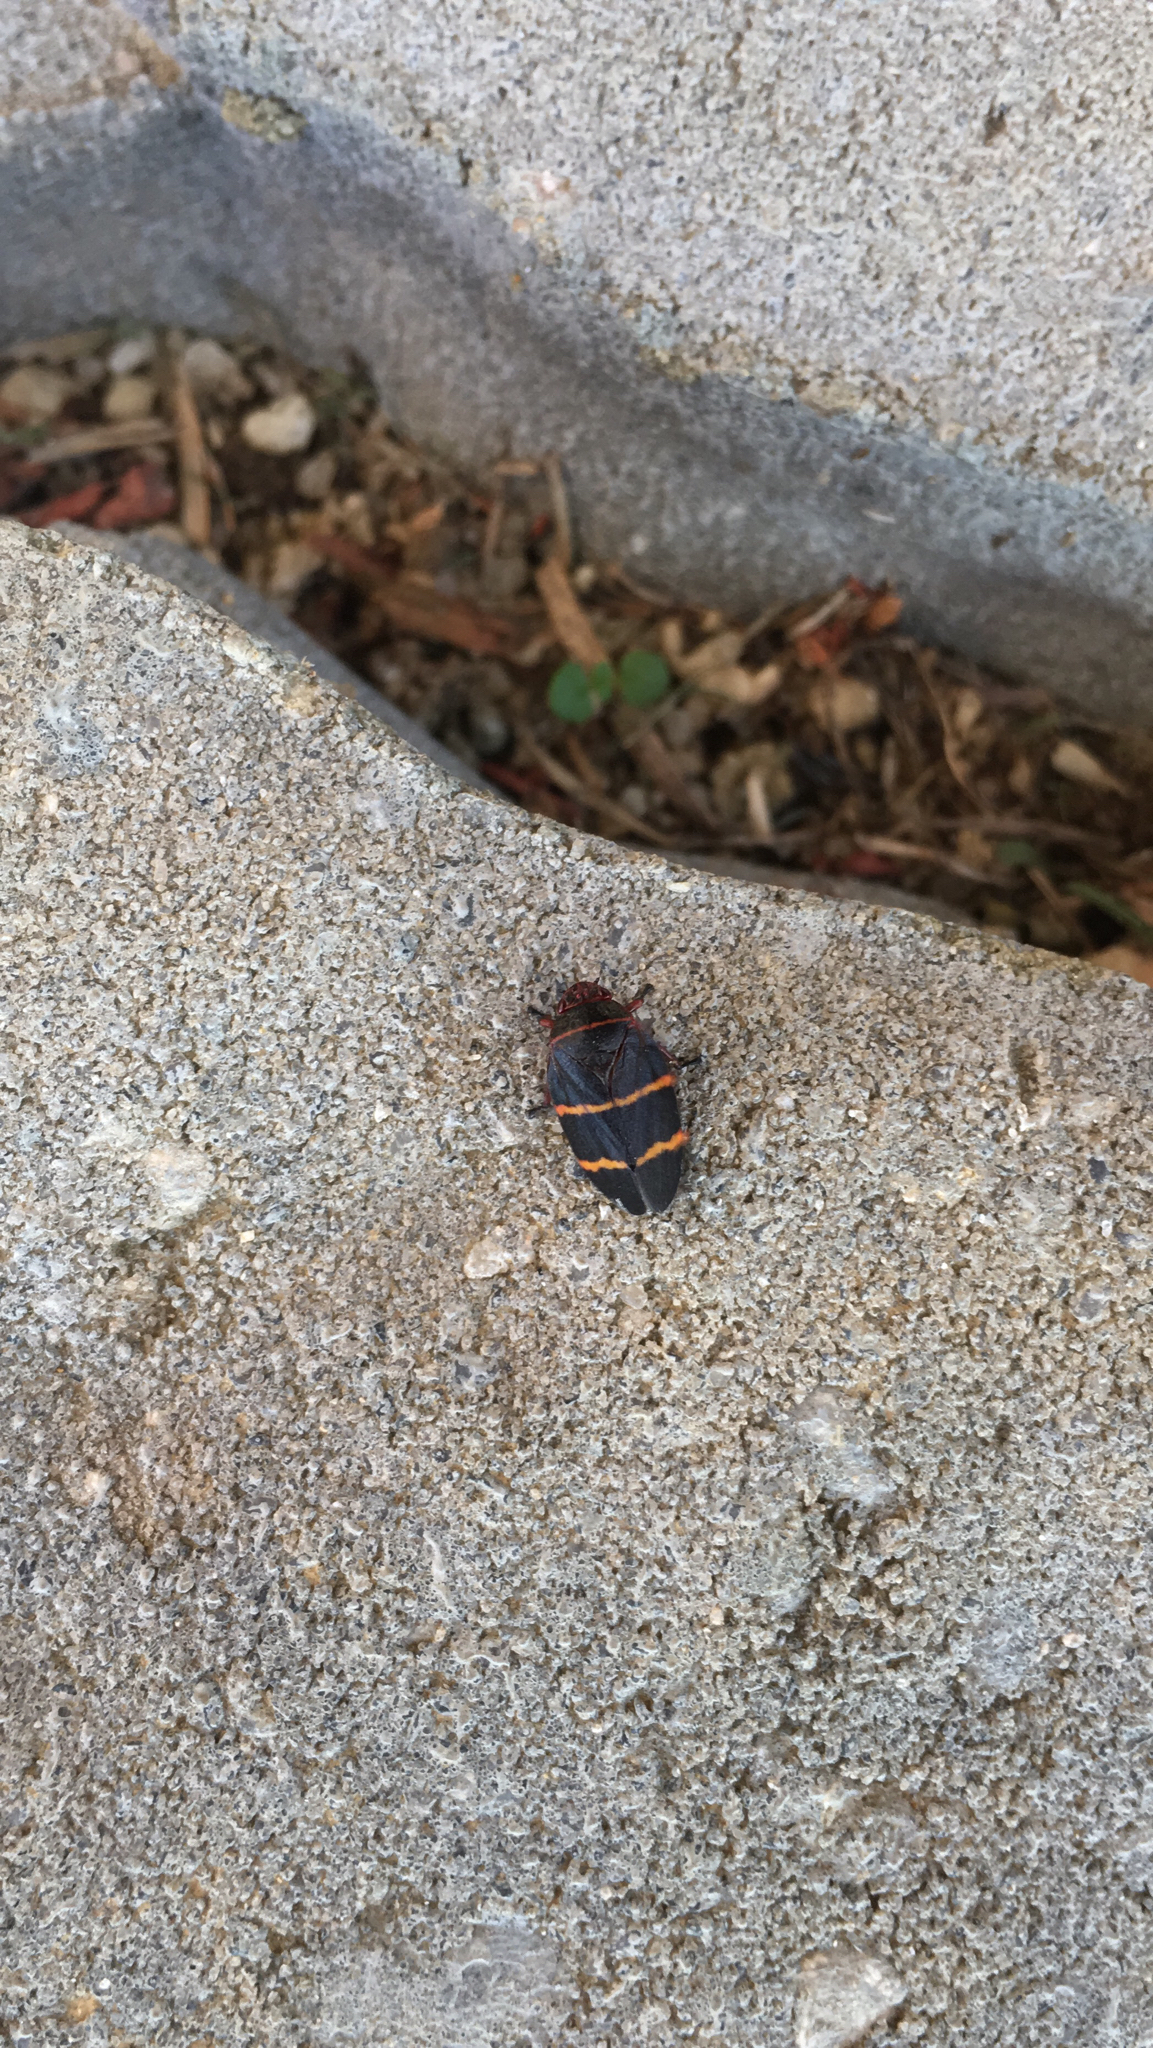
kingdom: Animalia
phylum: Arthropoda
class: Insecta
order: Hemiptera
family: Cercopidae
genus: Prosapia
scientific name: Prosapia bicincta
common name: Twolined spittlebug
